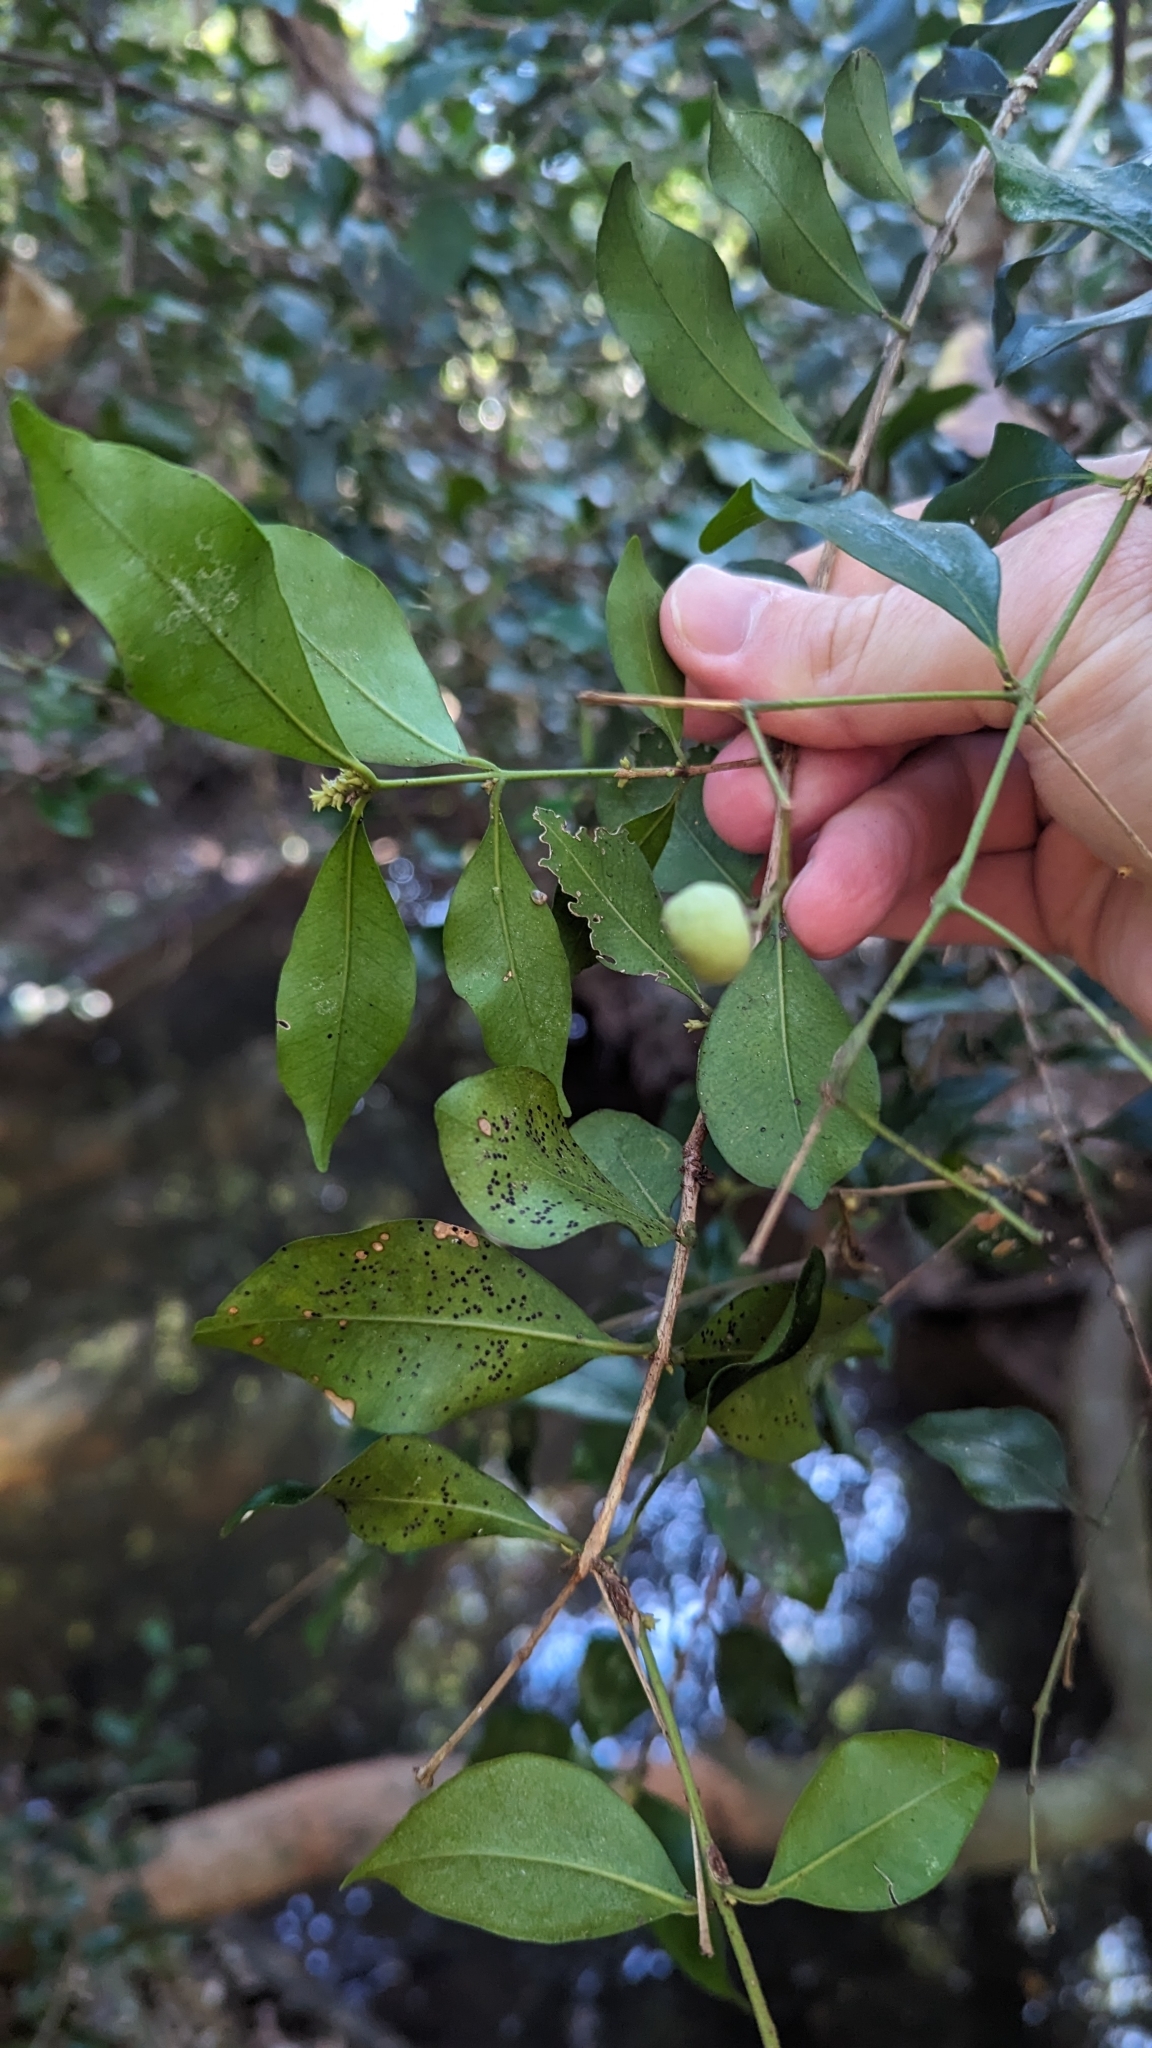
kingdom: Plantae
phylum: Tracheophyta
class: Magnoliopsida
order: Myrtales
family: Myrtaceae
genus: Syzygium
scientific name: Syzygium smithii
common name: Lilly-pilly
